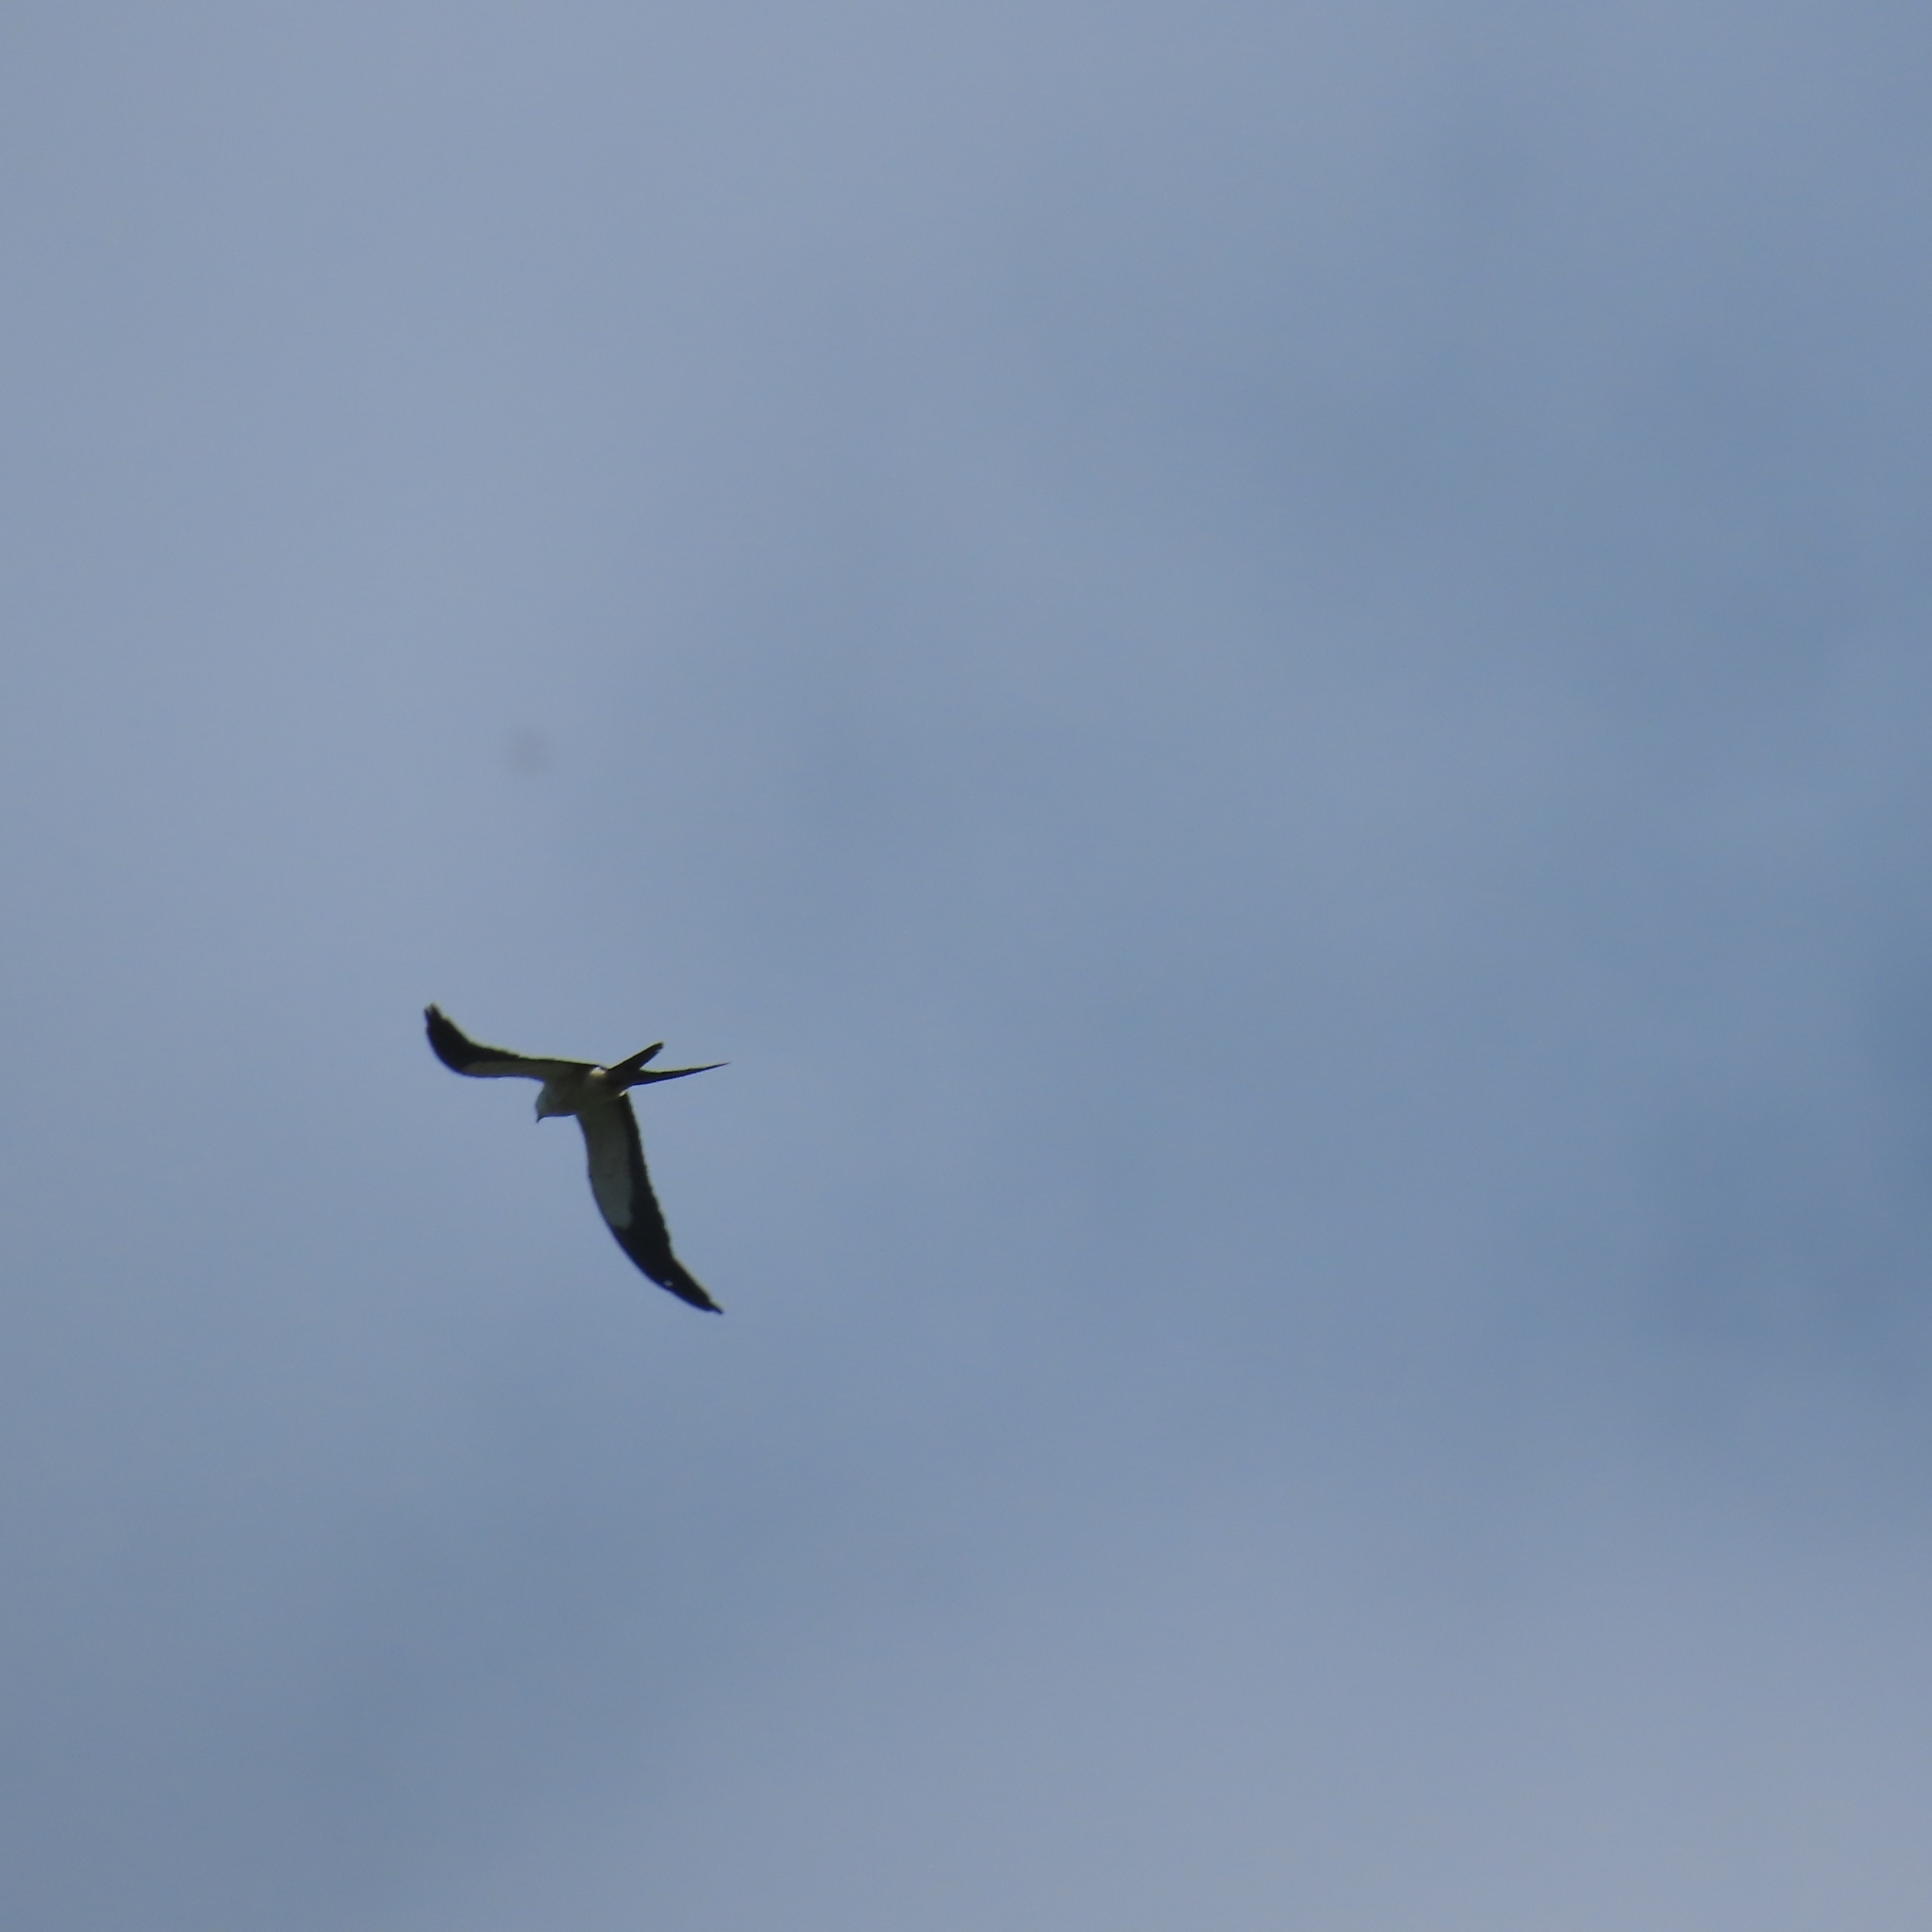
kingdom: Animalia
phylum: Chordata
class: Aves
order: Accipitriformes
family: Accipitridae
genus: Elanoides
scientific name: Elanoides forficatus
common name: Swallow-tailed kite
